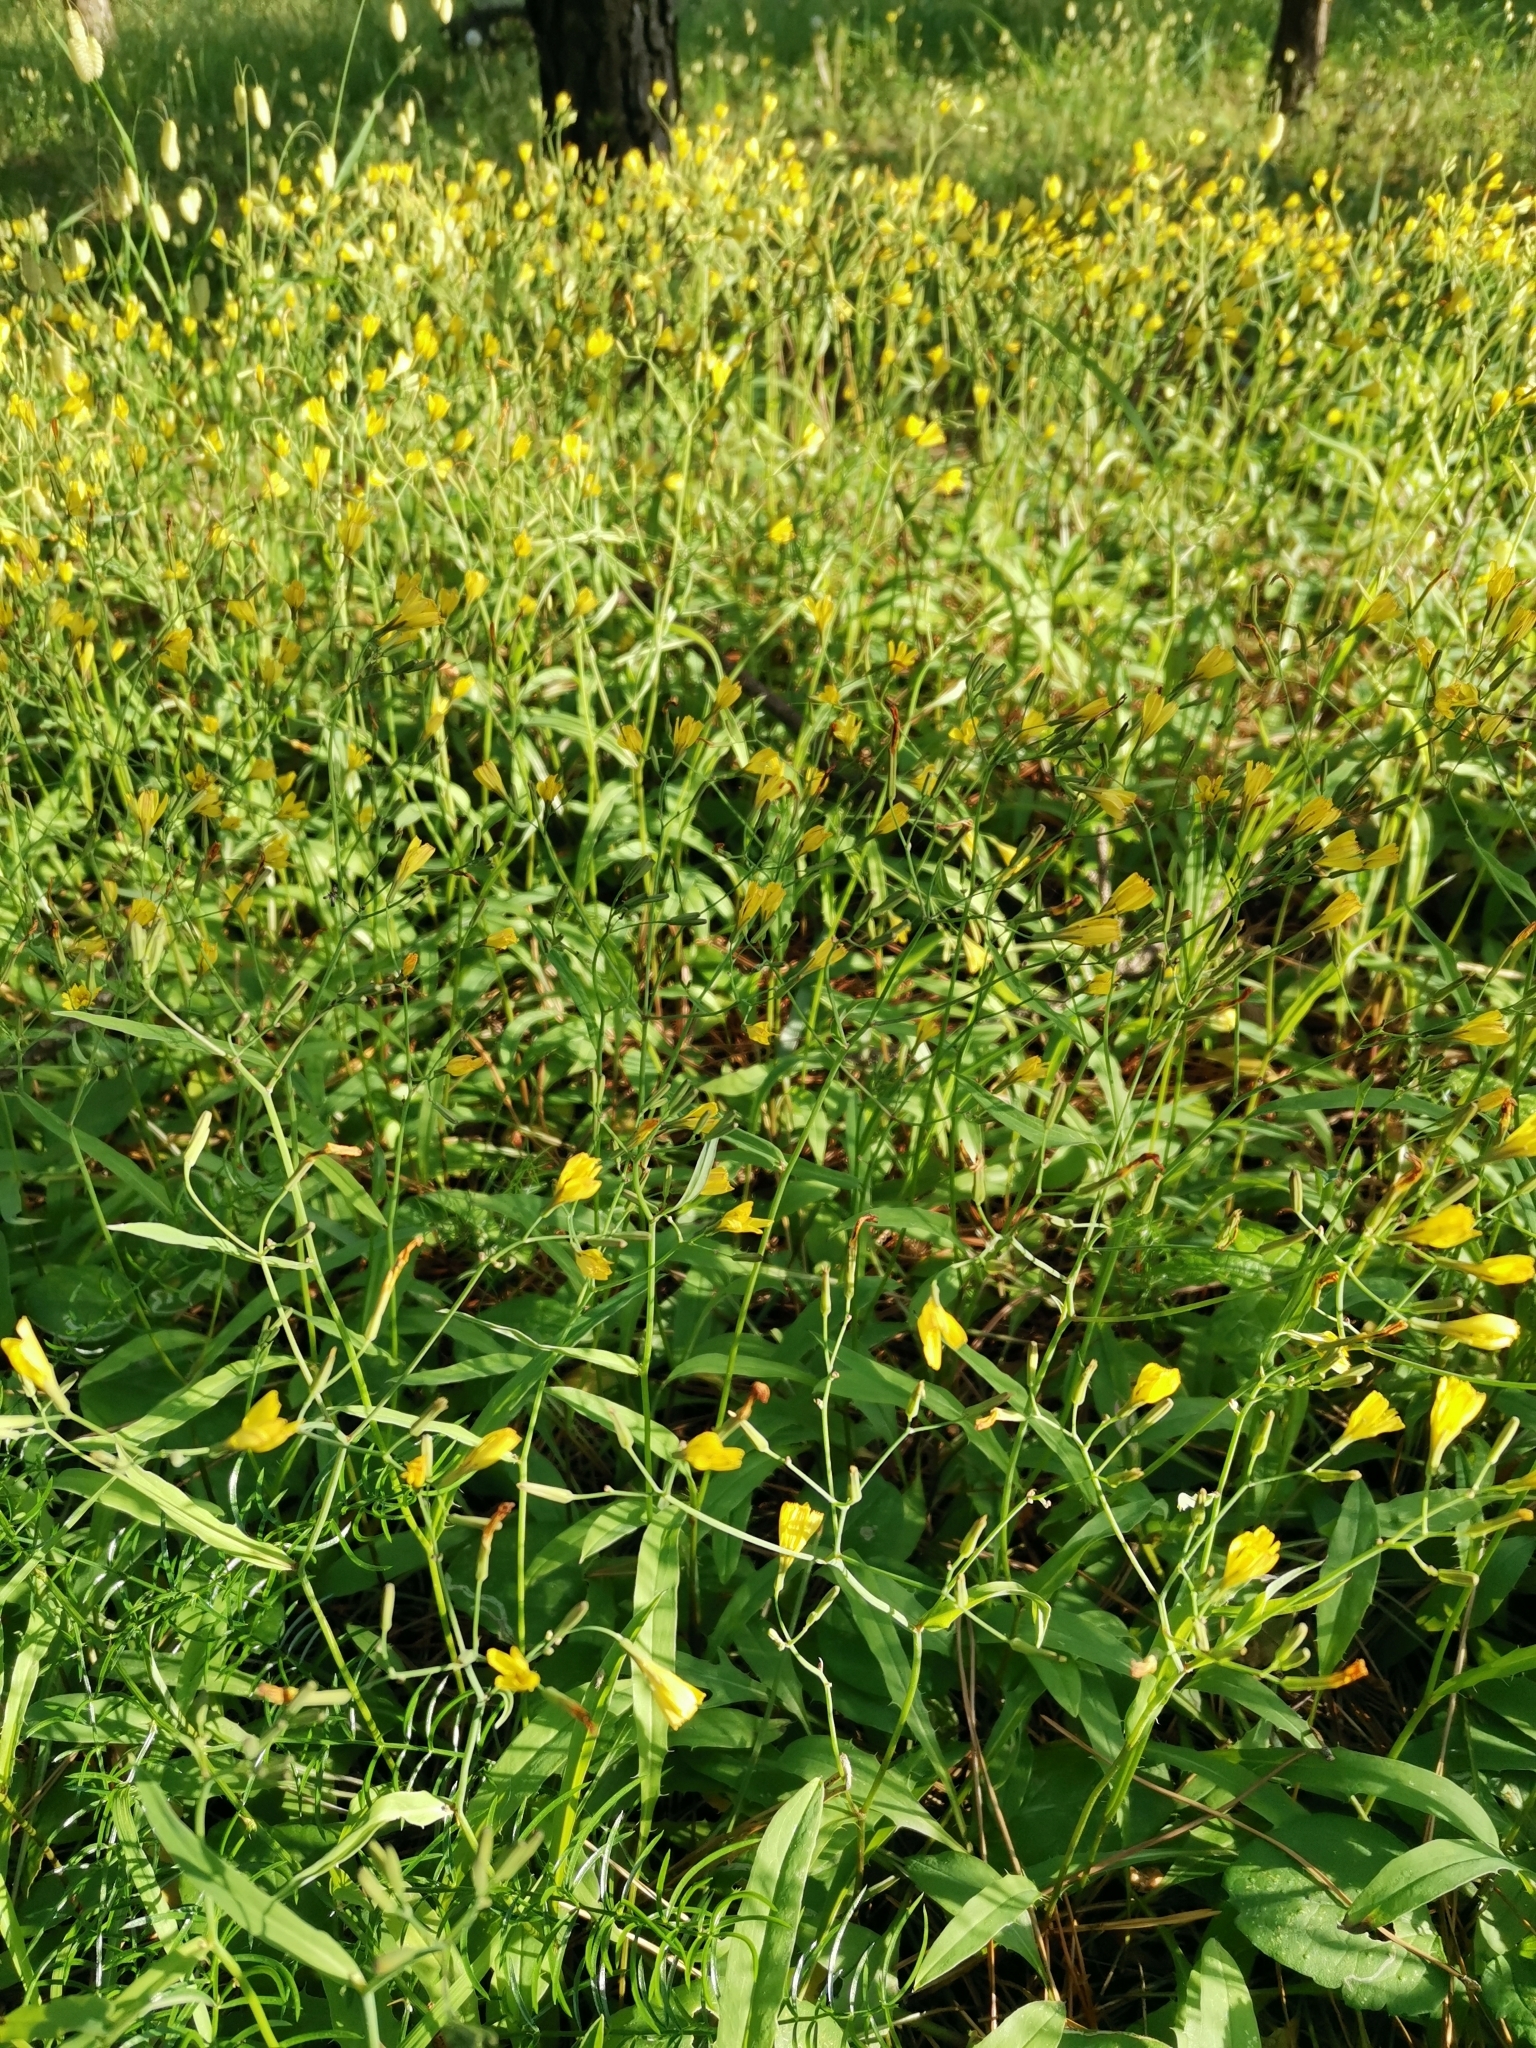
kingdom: Plantae
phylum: Tracheophyta
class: Magnoliopsida
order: Asterales
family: Asteraceae
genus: Ixeridium
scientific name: Ixeridium dentatum
